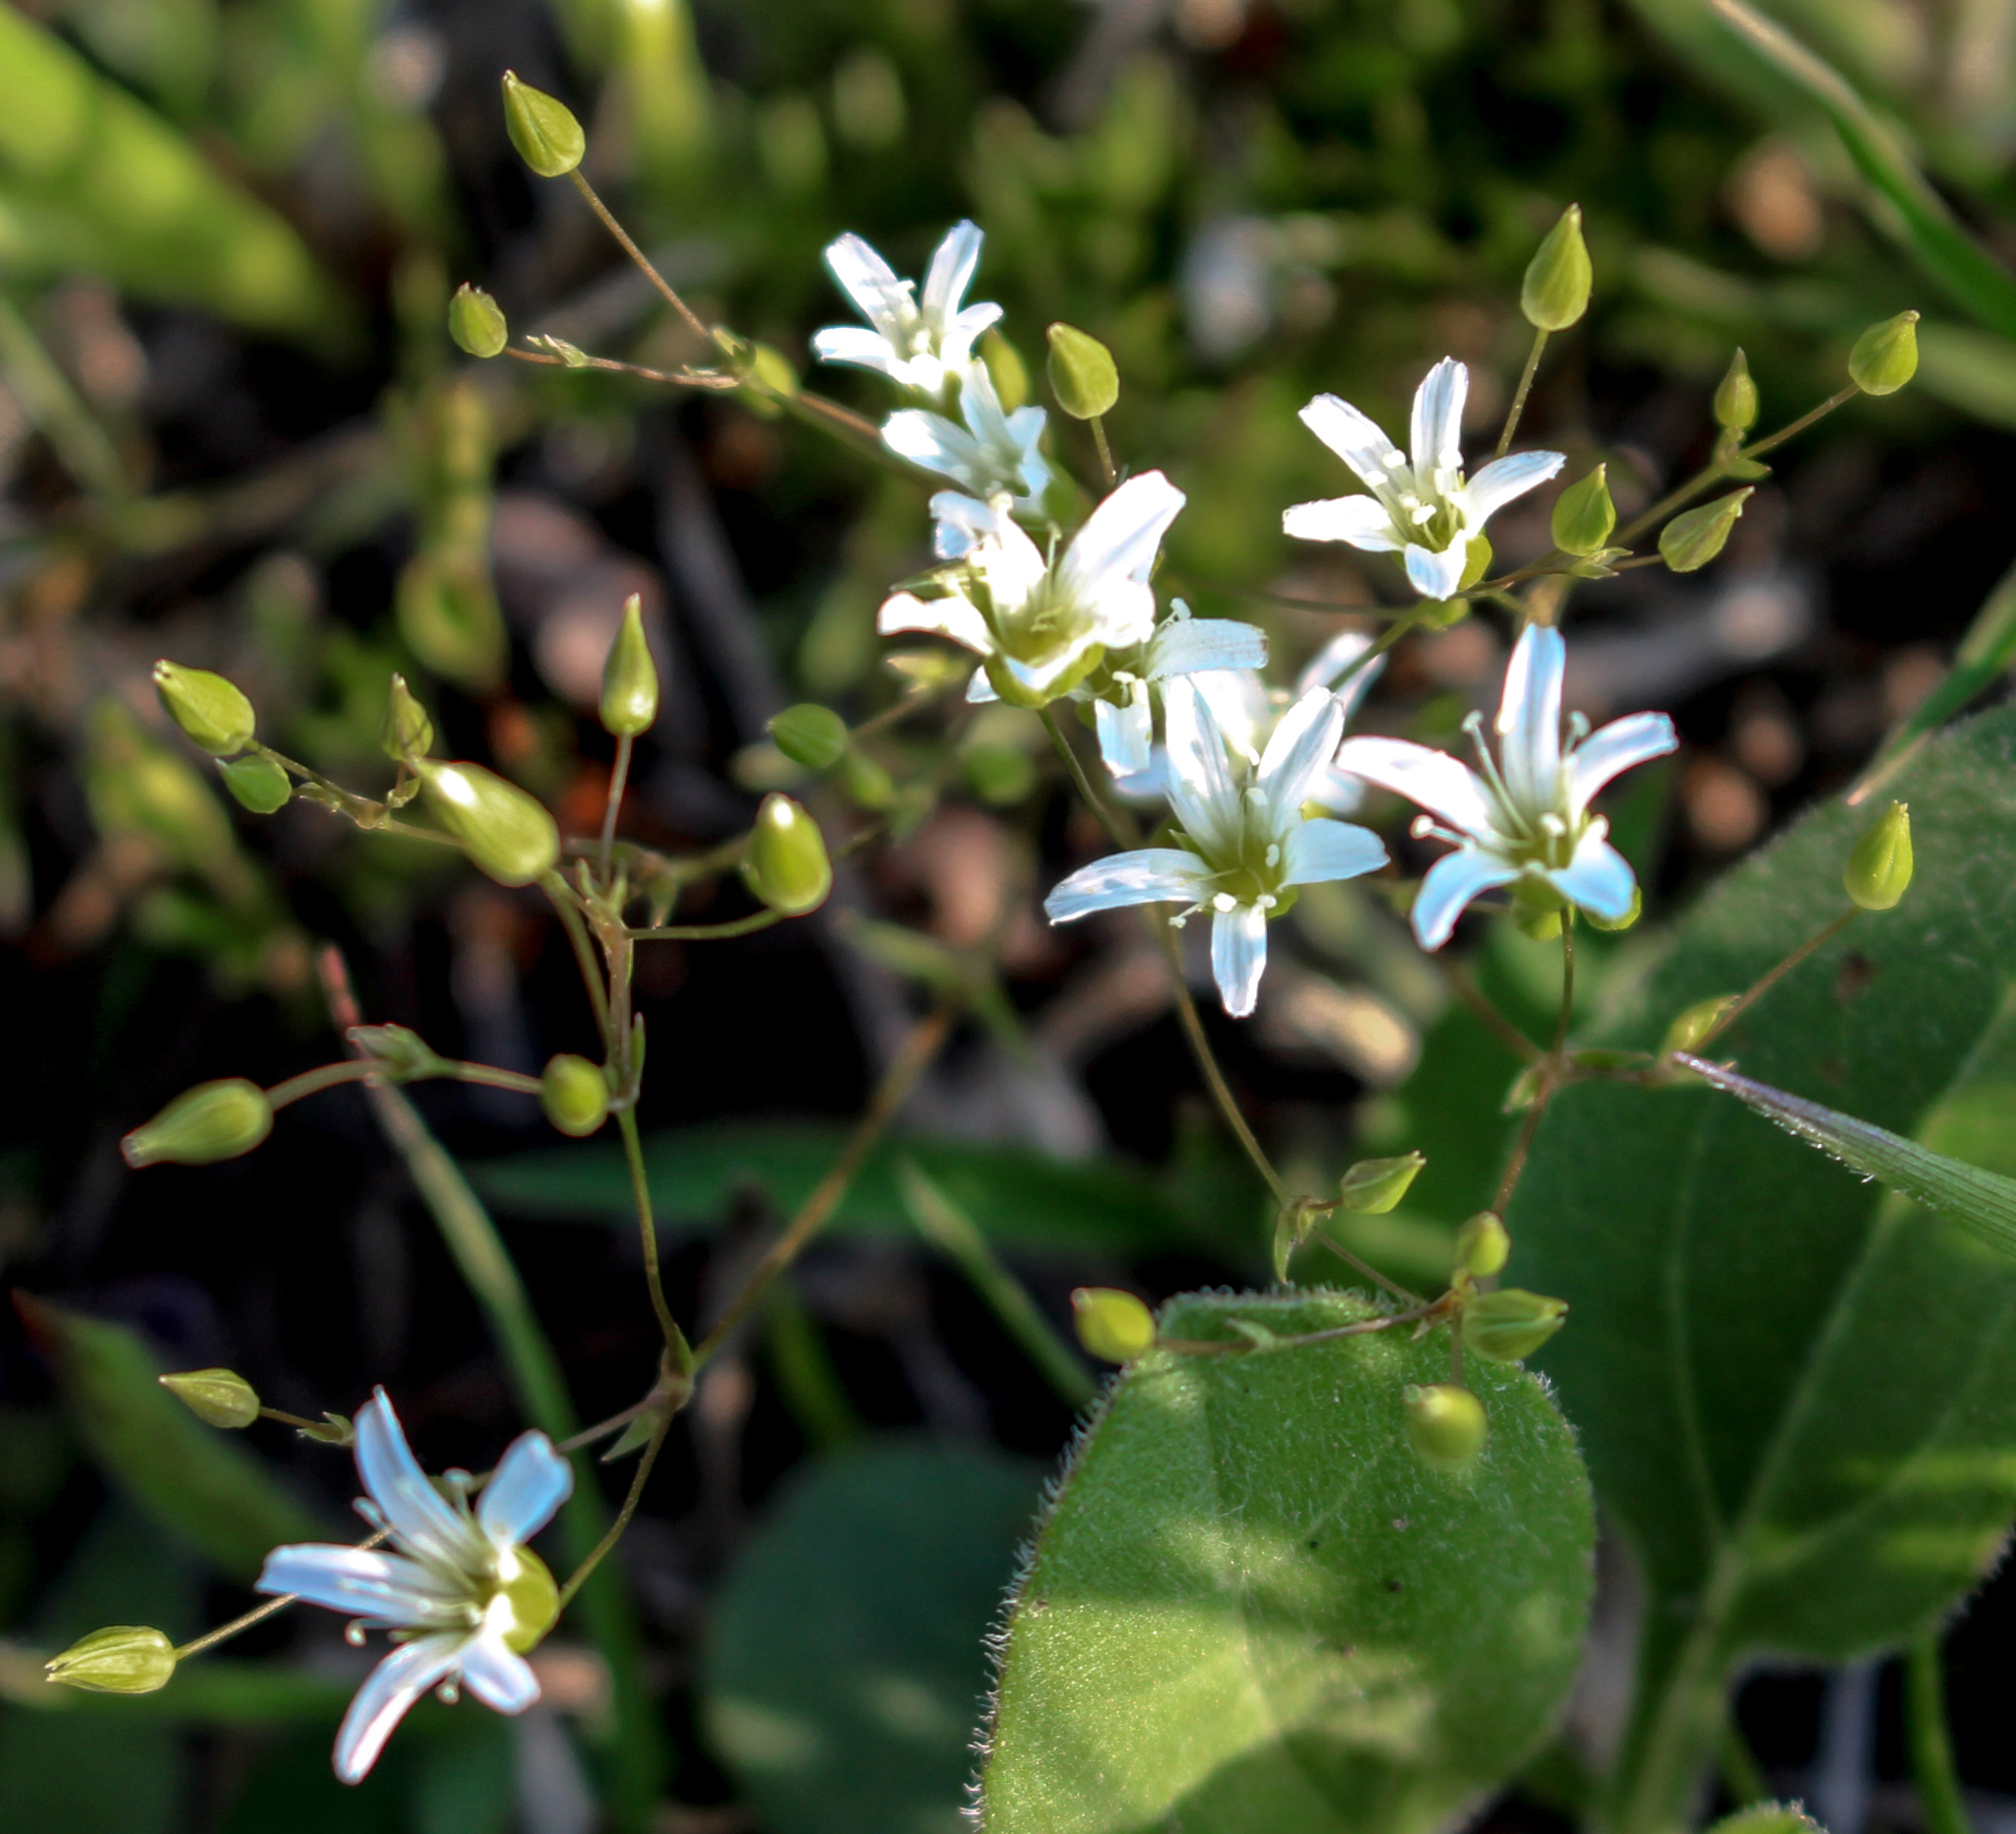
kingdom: Plantae
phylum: Tracheophyta
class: Magnoliopsida
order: Caryophyllales
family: Caryophyllaceae
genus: Sabulina
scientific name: Sabulina michauxii
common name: Michaux's stitchwort
